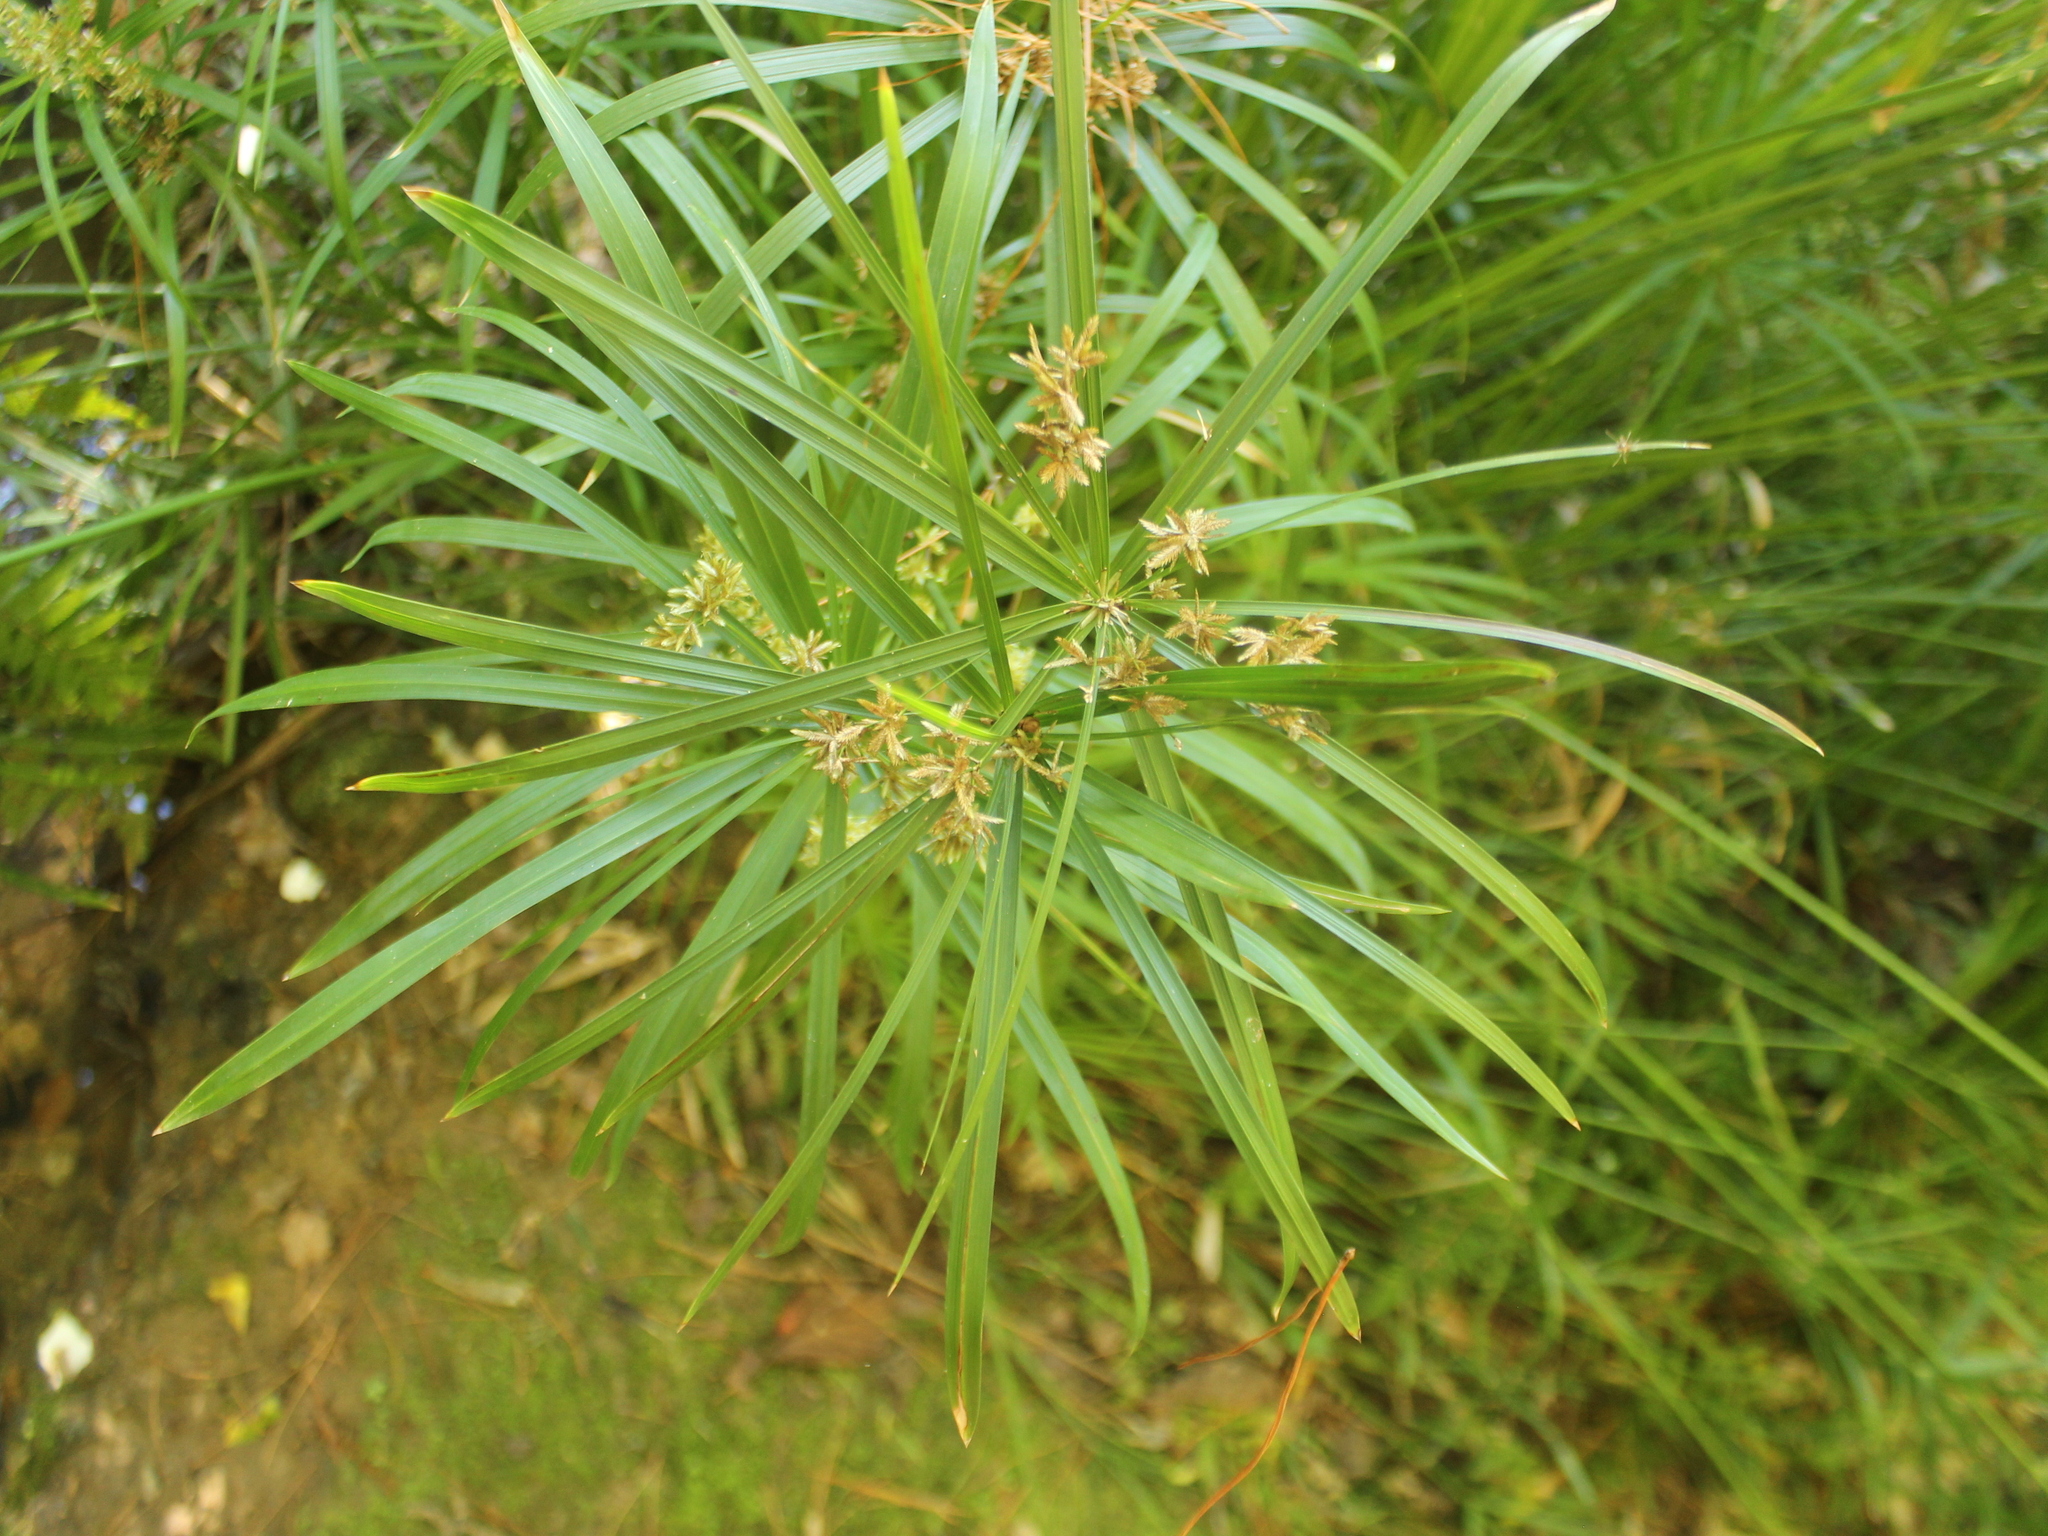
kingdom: Plantae
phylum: Tracheophyta
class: Liliopsida
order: Poales
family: Cyperaceae
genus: Cyperus
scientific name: Cyperus alternifolius
